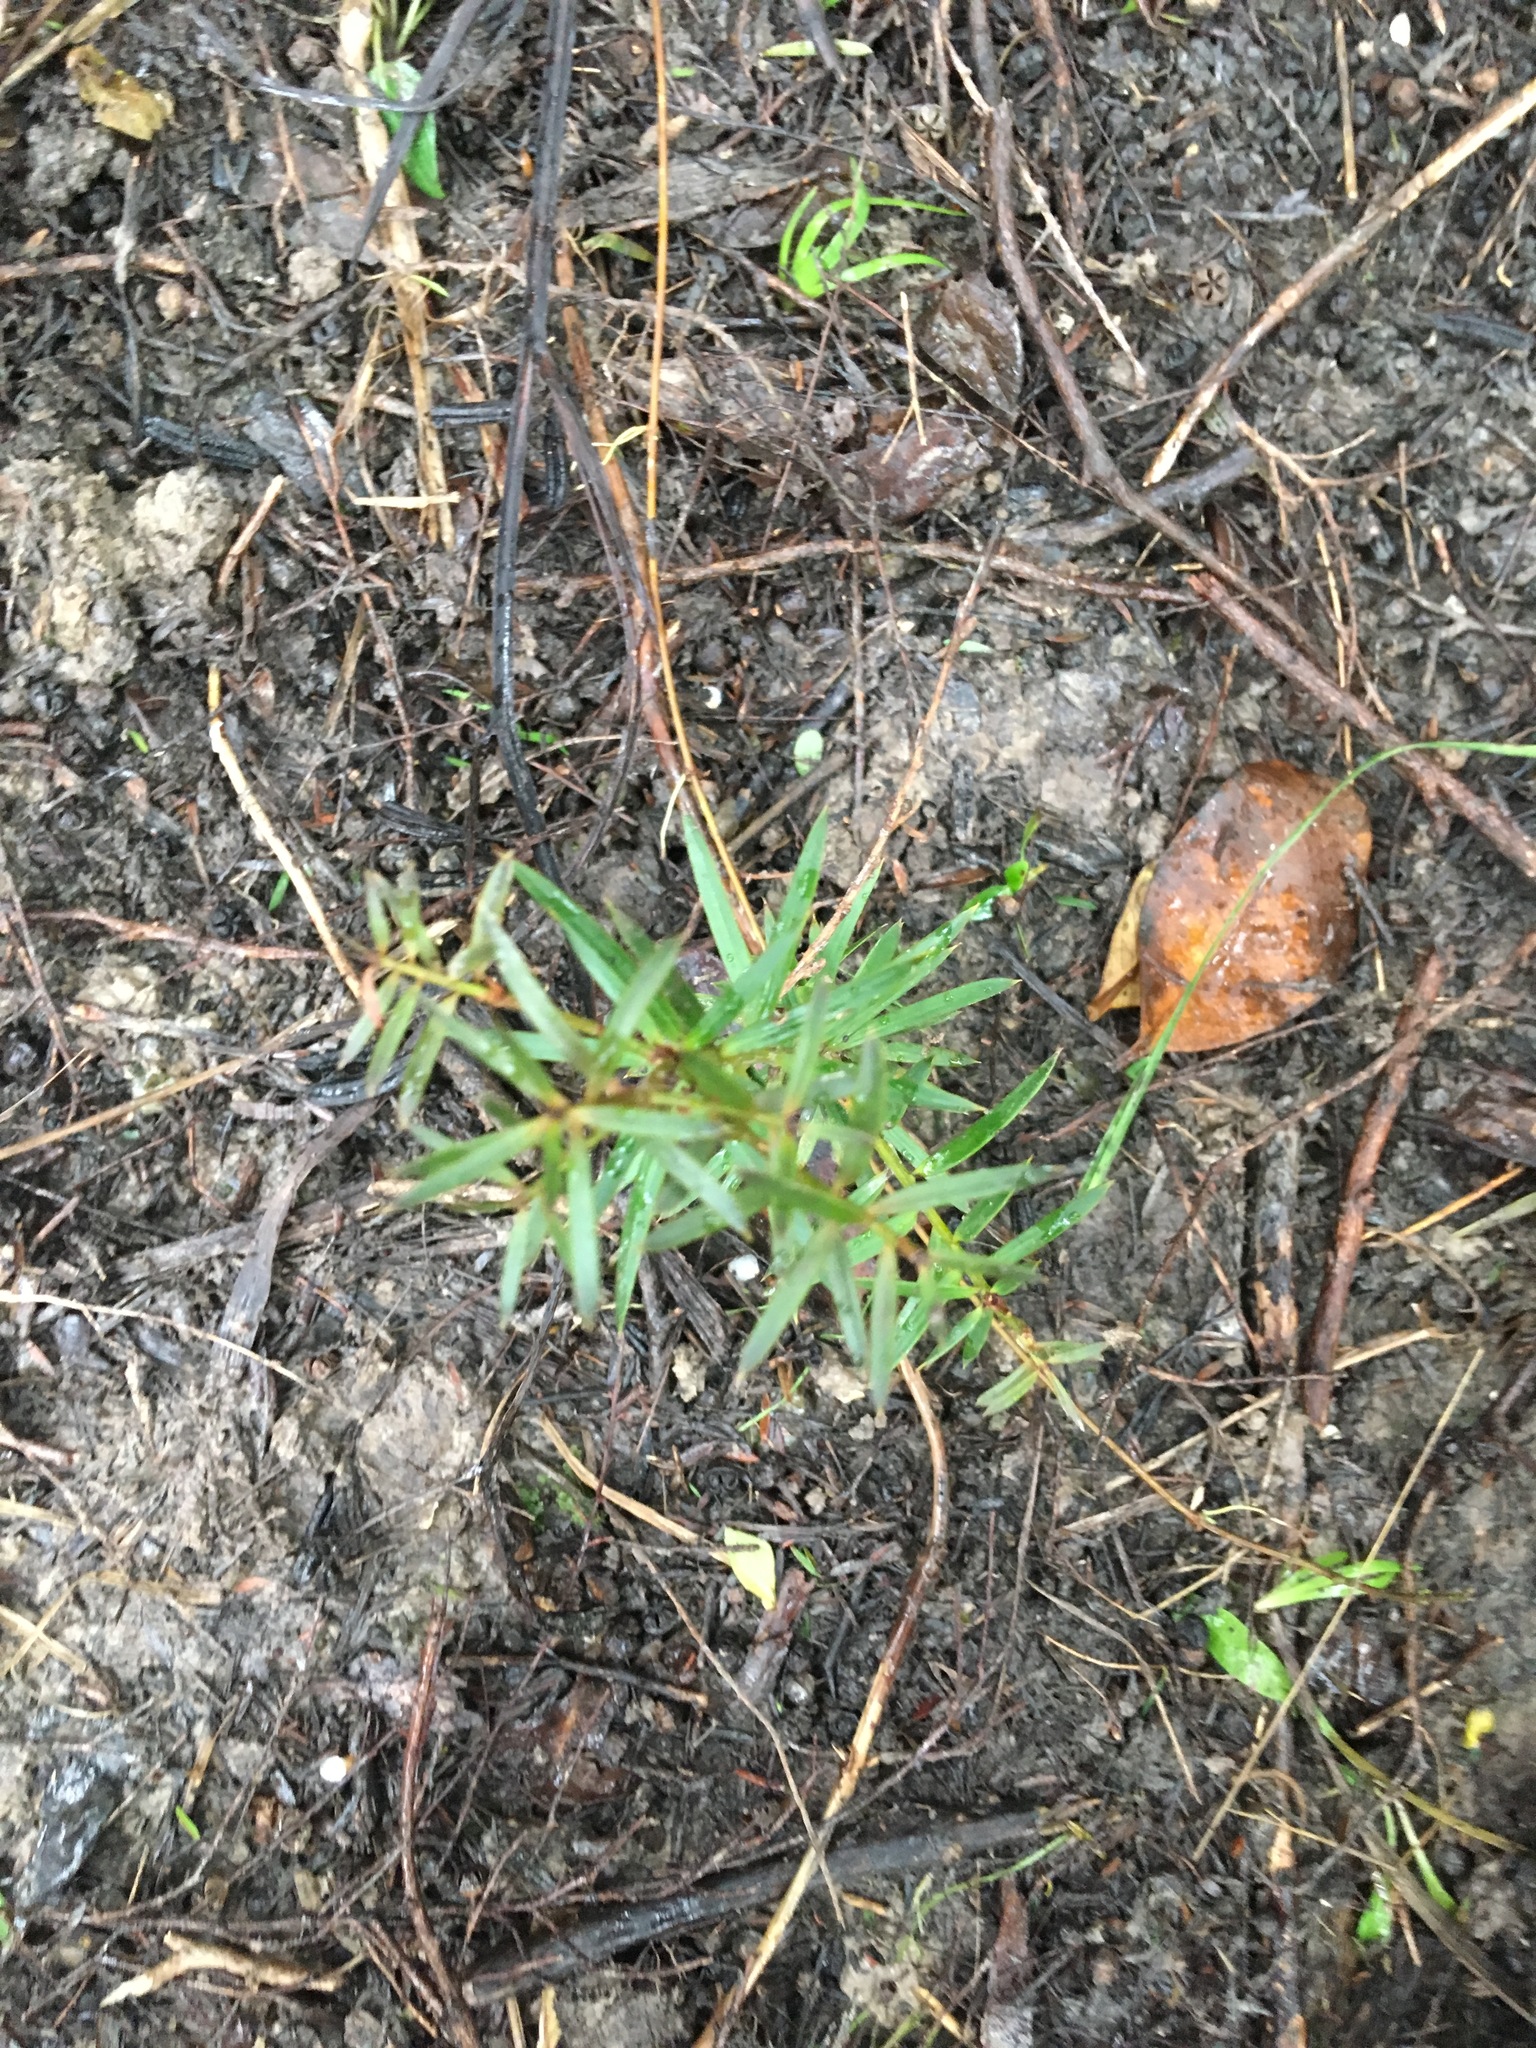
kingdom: Plantae
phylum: Tracheophyta
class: Pinopsida
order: Pinales
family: Podocarpaceae
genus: Podocarpus
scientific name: Podocarpus totara
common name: Totara
